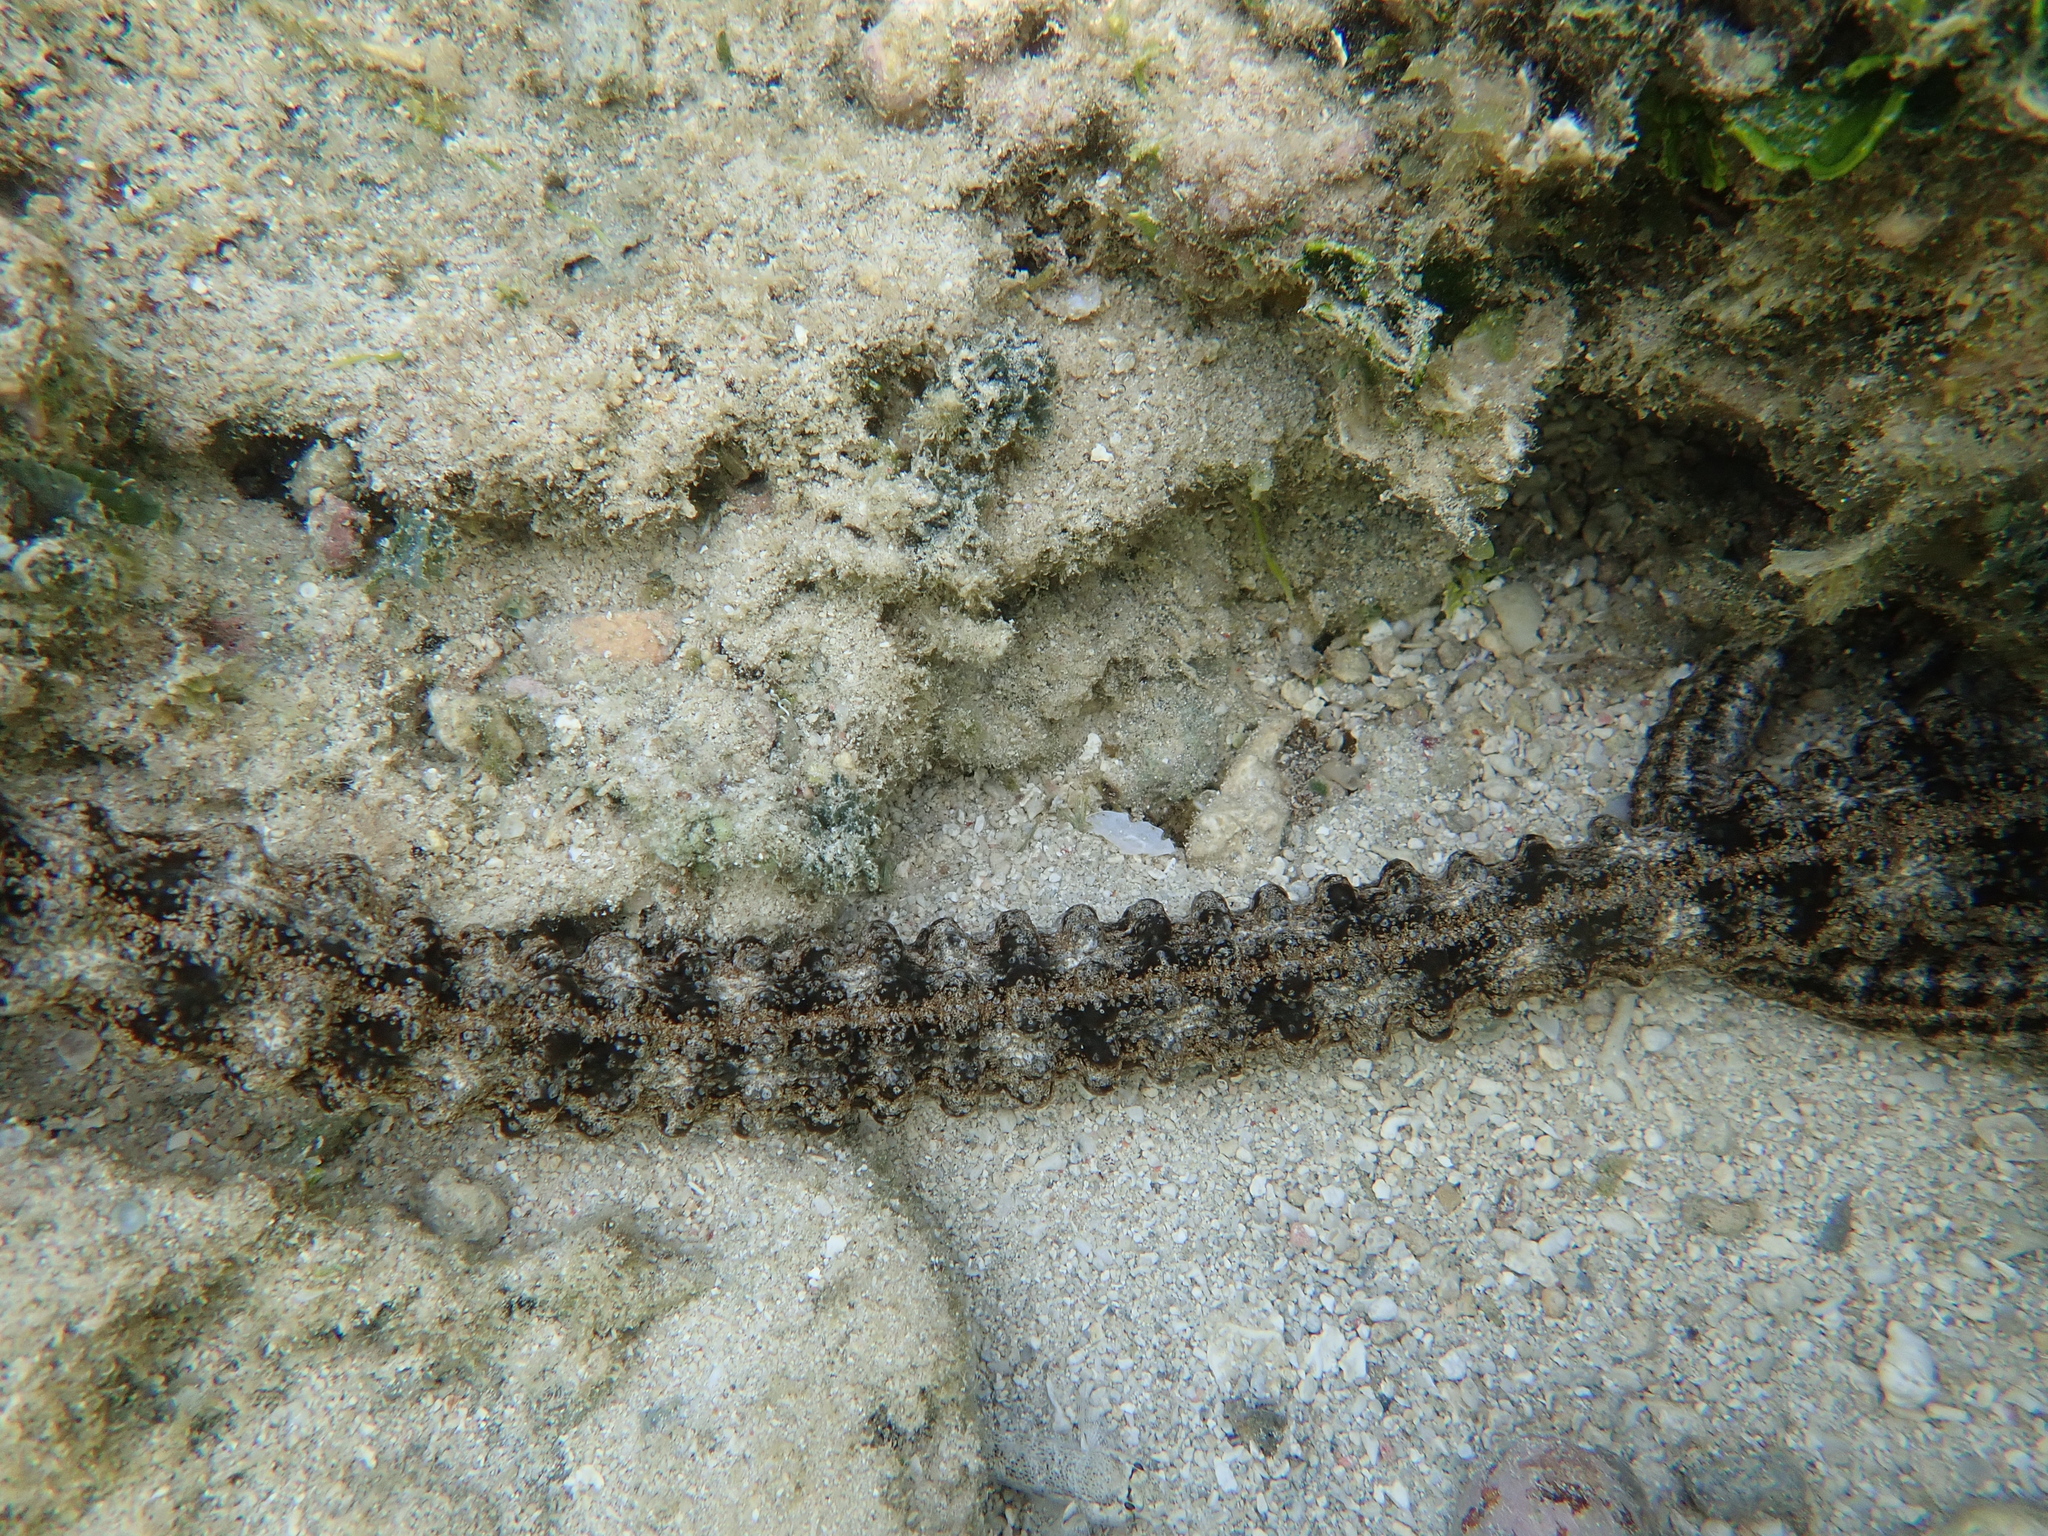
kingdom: Animalia
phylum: Echinodermata
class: Holothuroidea
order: Apodida
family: Synaptidae
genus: Synapta
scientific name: Synapta maculata
